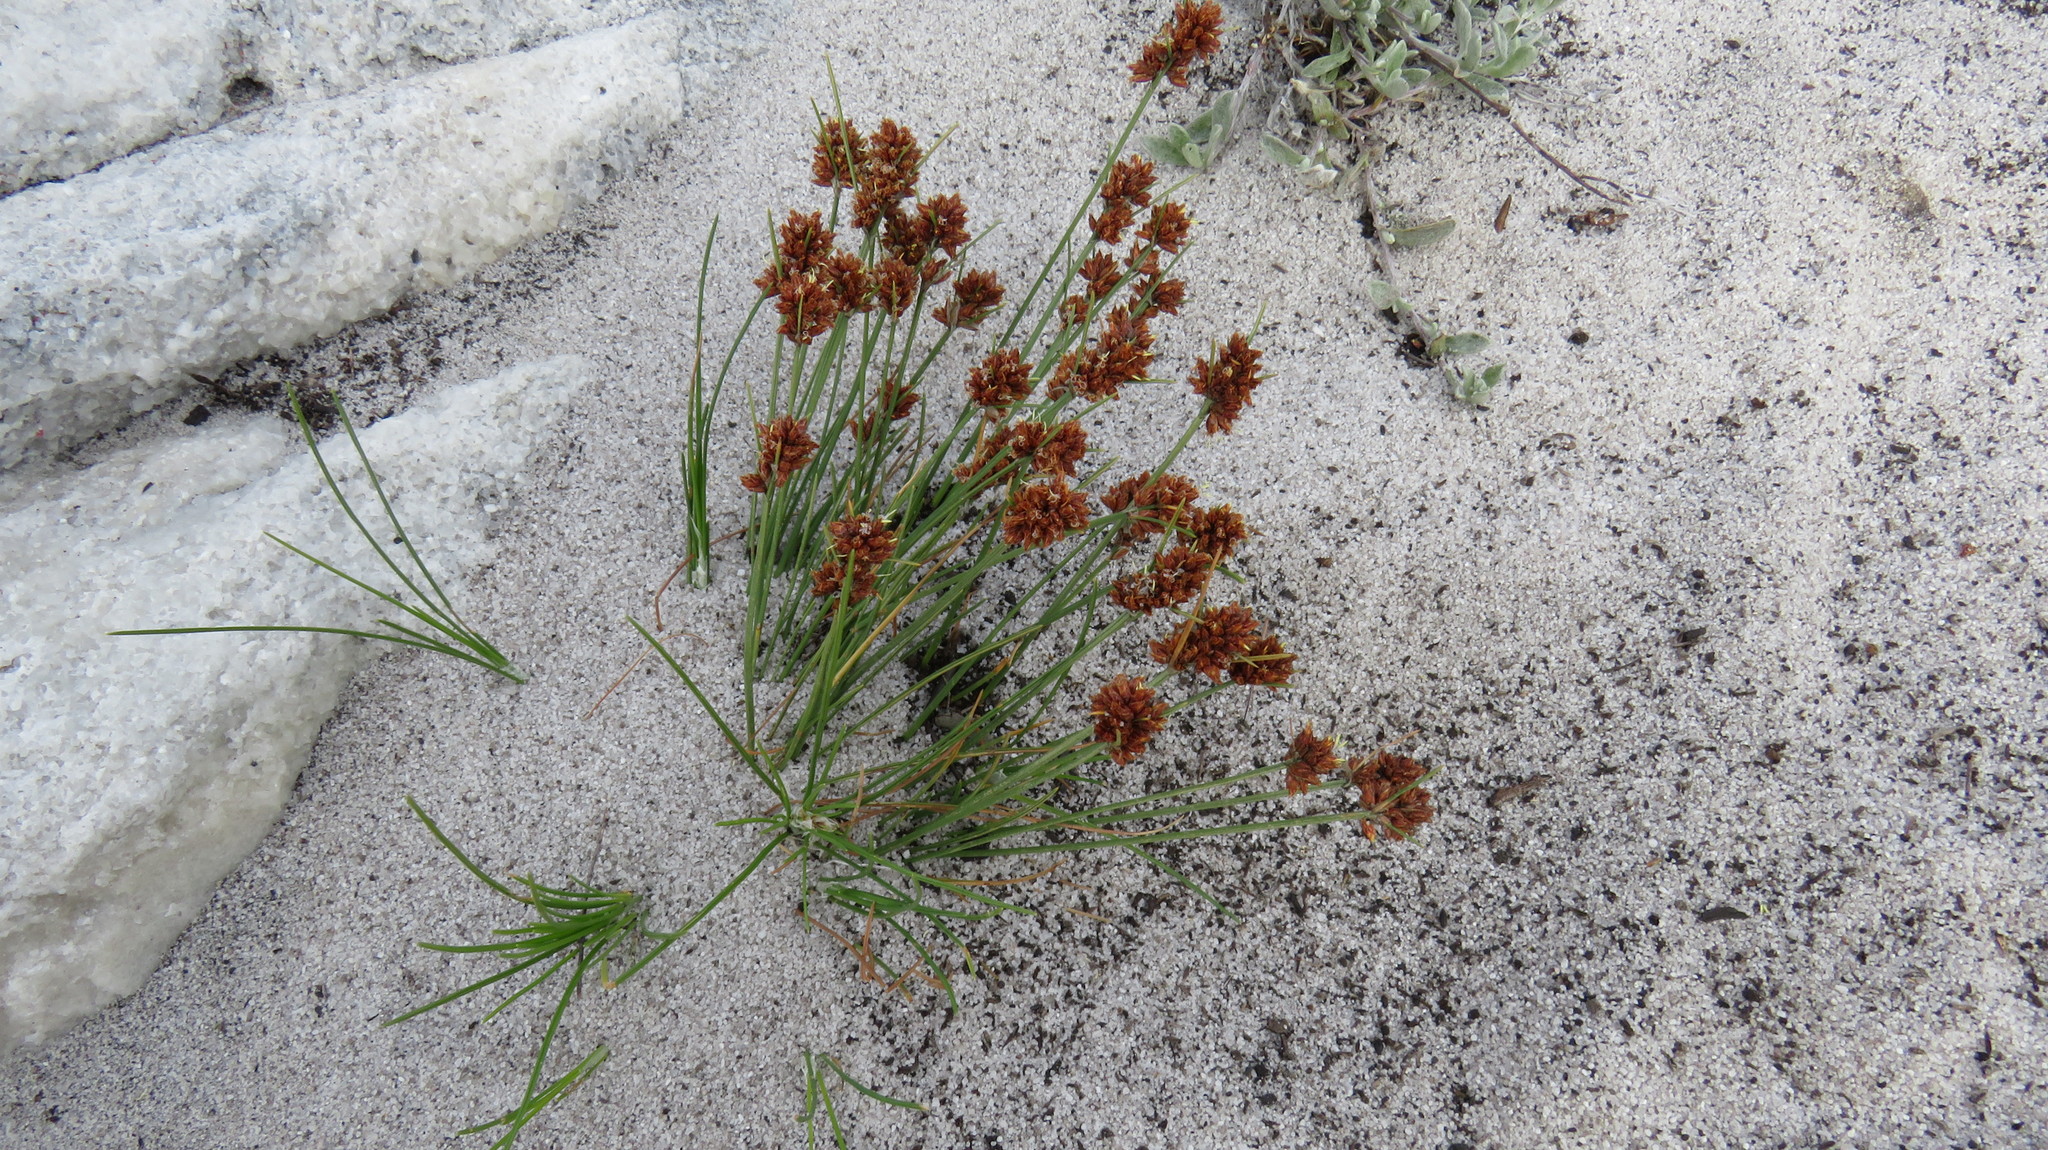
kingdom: Plantae
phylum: Tracheophyta
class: Liliopsida
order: Poales
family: Cyperaceae
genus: Ficinia
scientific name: Ficinia bulbosa
